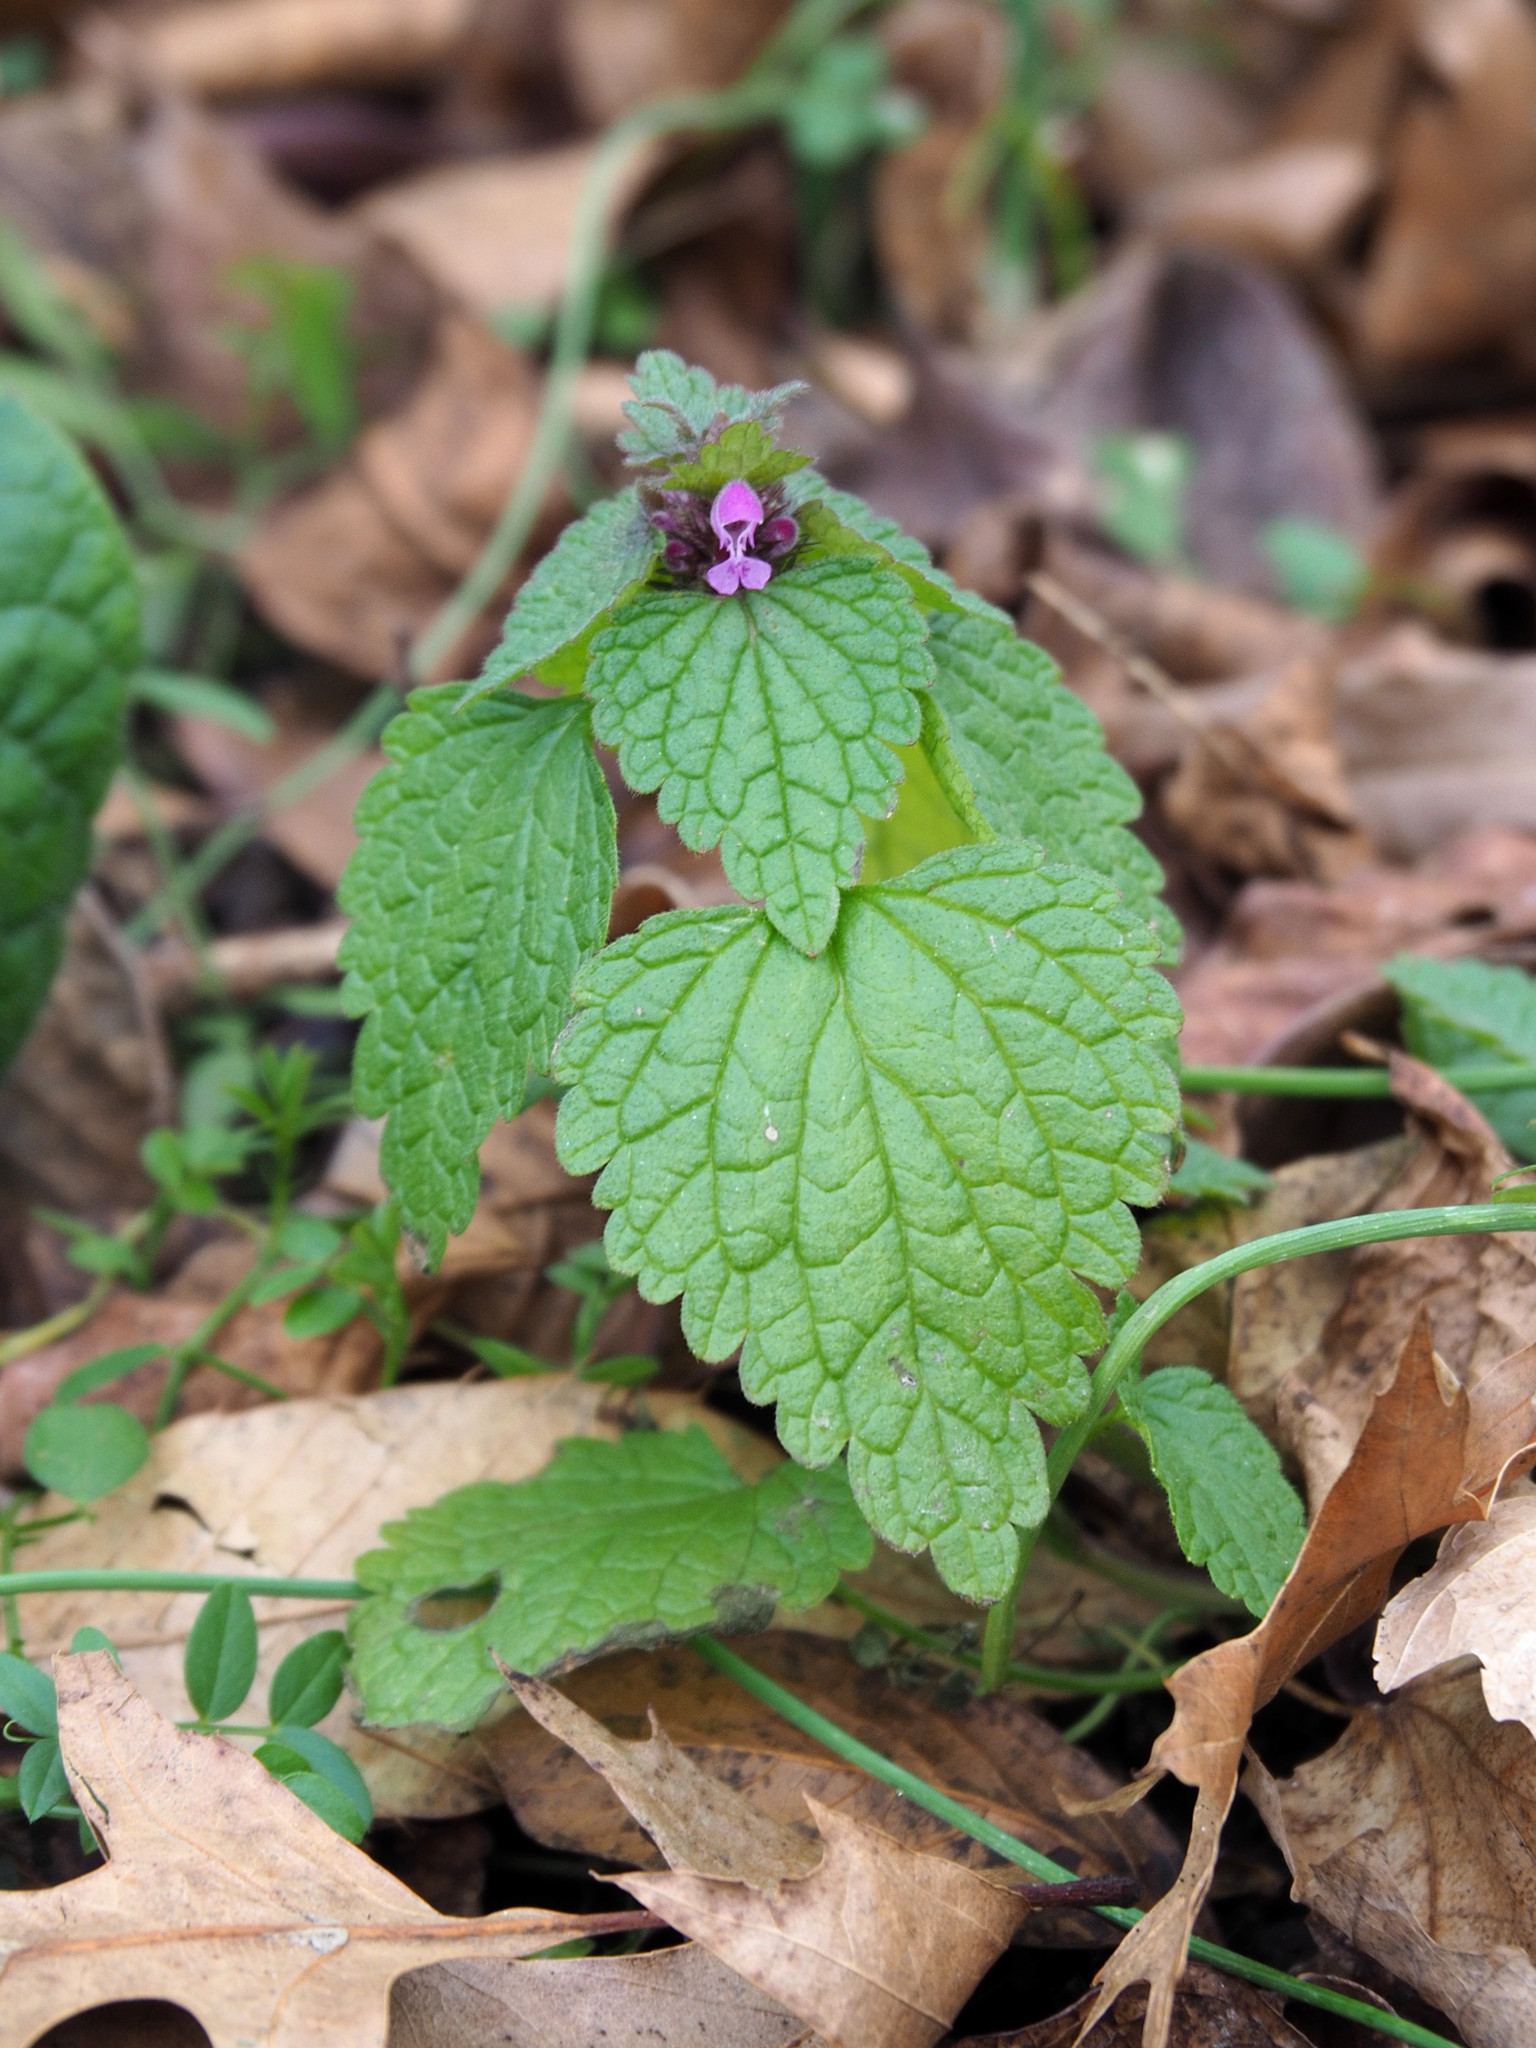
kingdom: Plantae
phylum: Tracheophyta
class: Magnoliopsida
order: Lamiales
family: Lamiaceae
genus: Lamium
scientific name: Lamium purpureum
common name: Red dead-nettle
